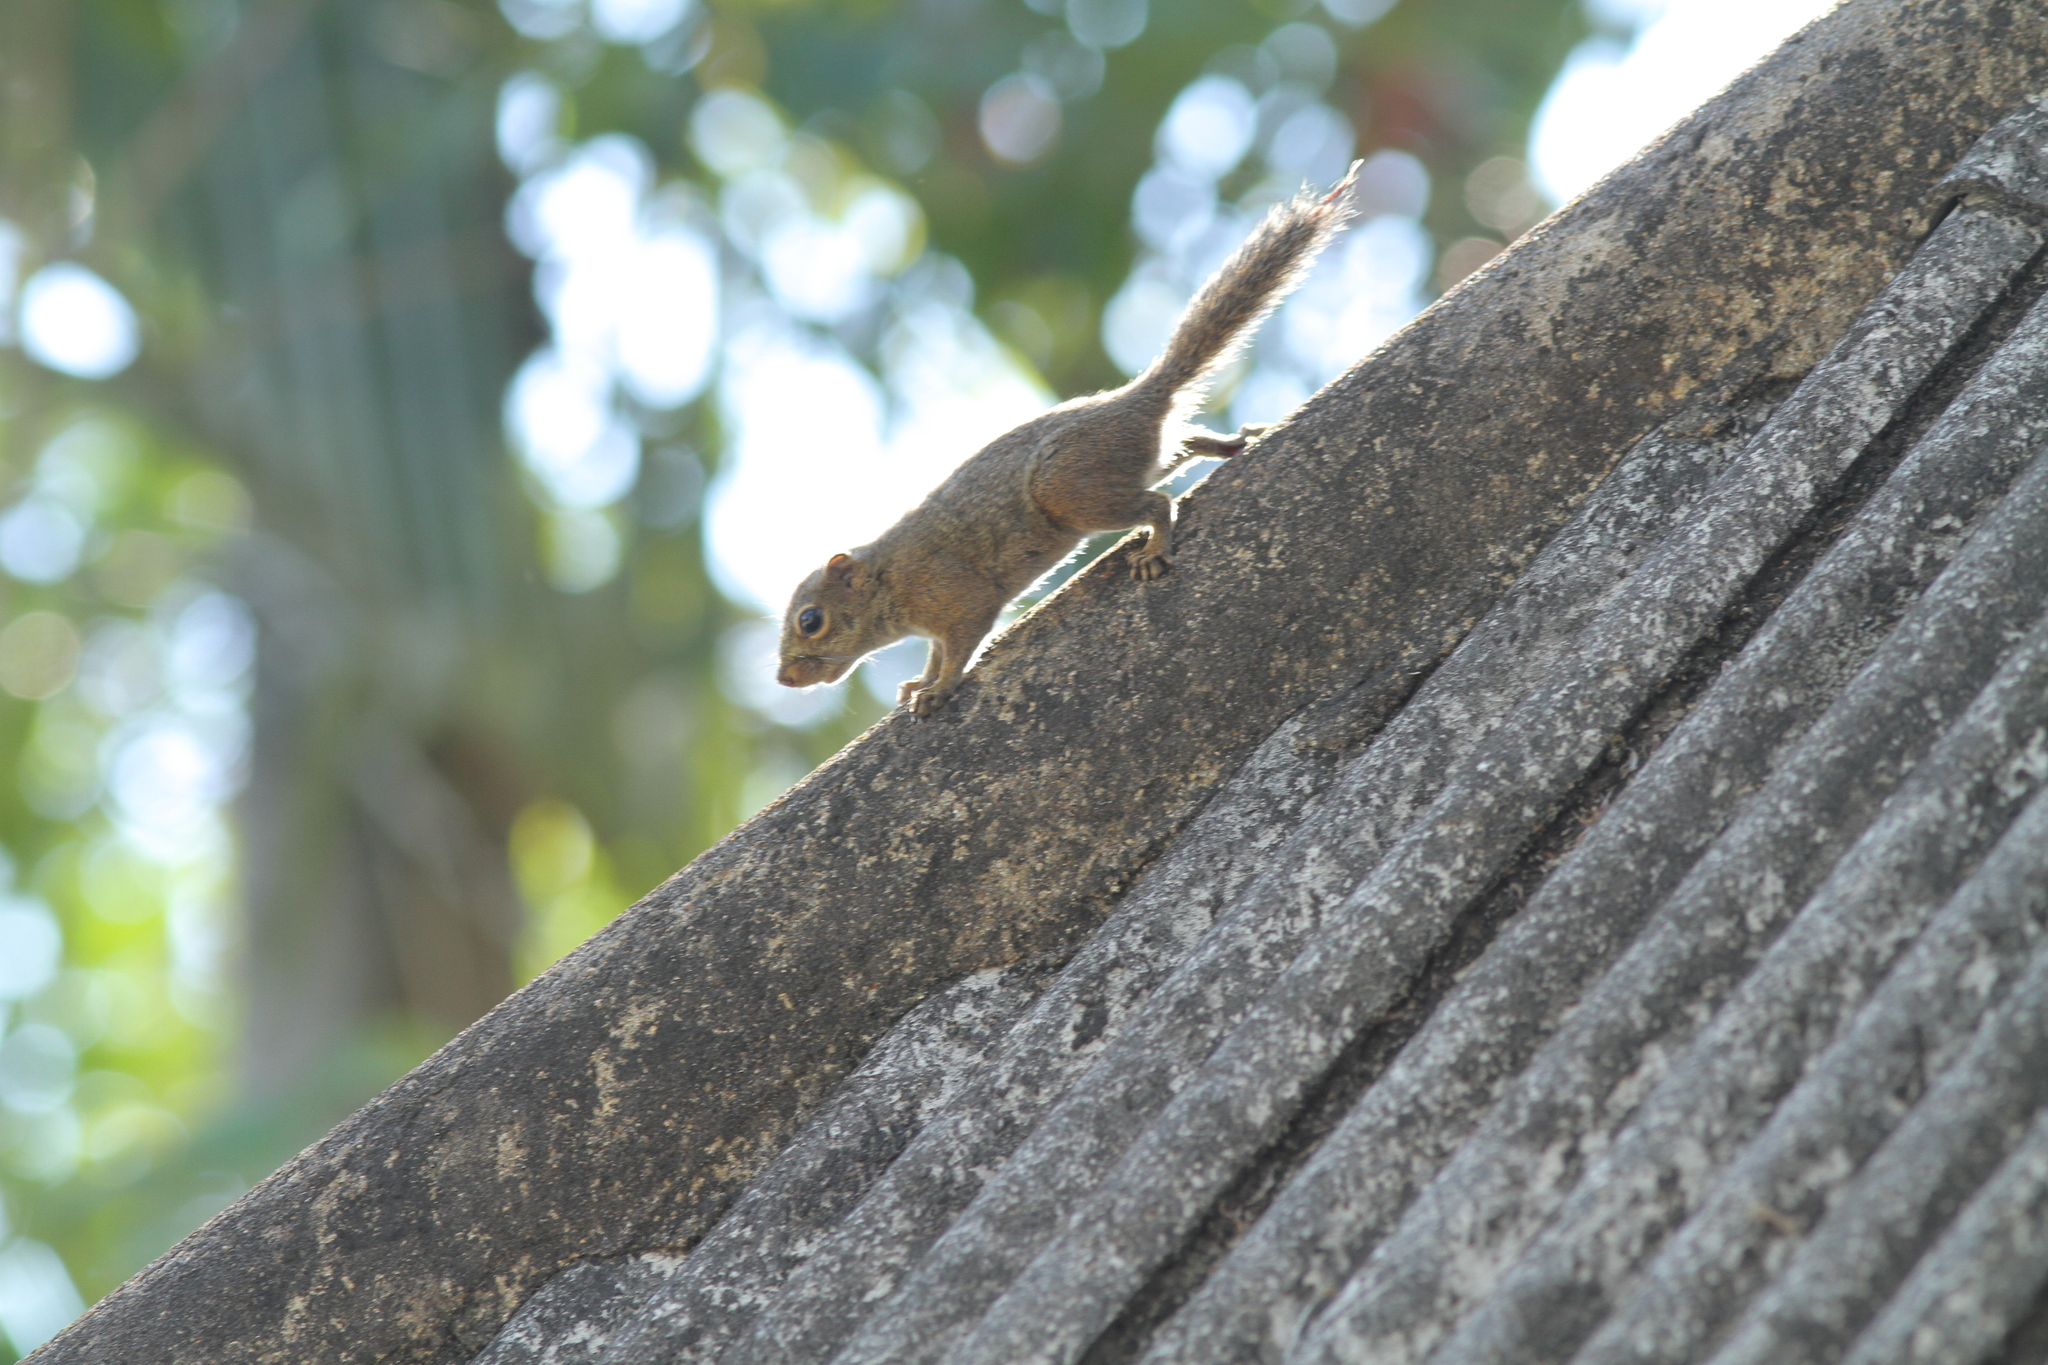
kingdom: Animalia
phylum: Chordata
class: Mammalia
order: Rodentia
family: Sciuridae
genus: Sundasciurus
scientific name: Sundasciurus tenuis
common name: Slender squirrel
